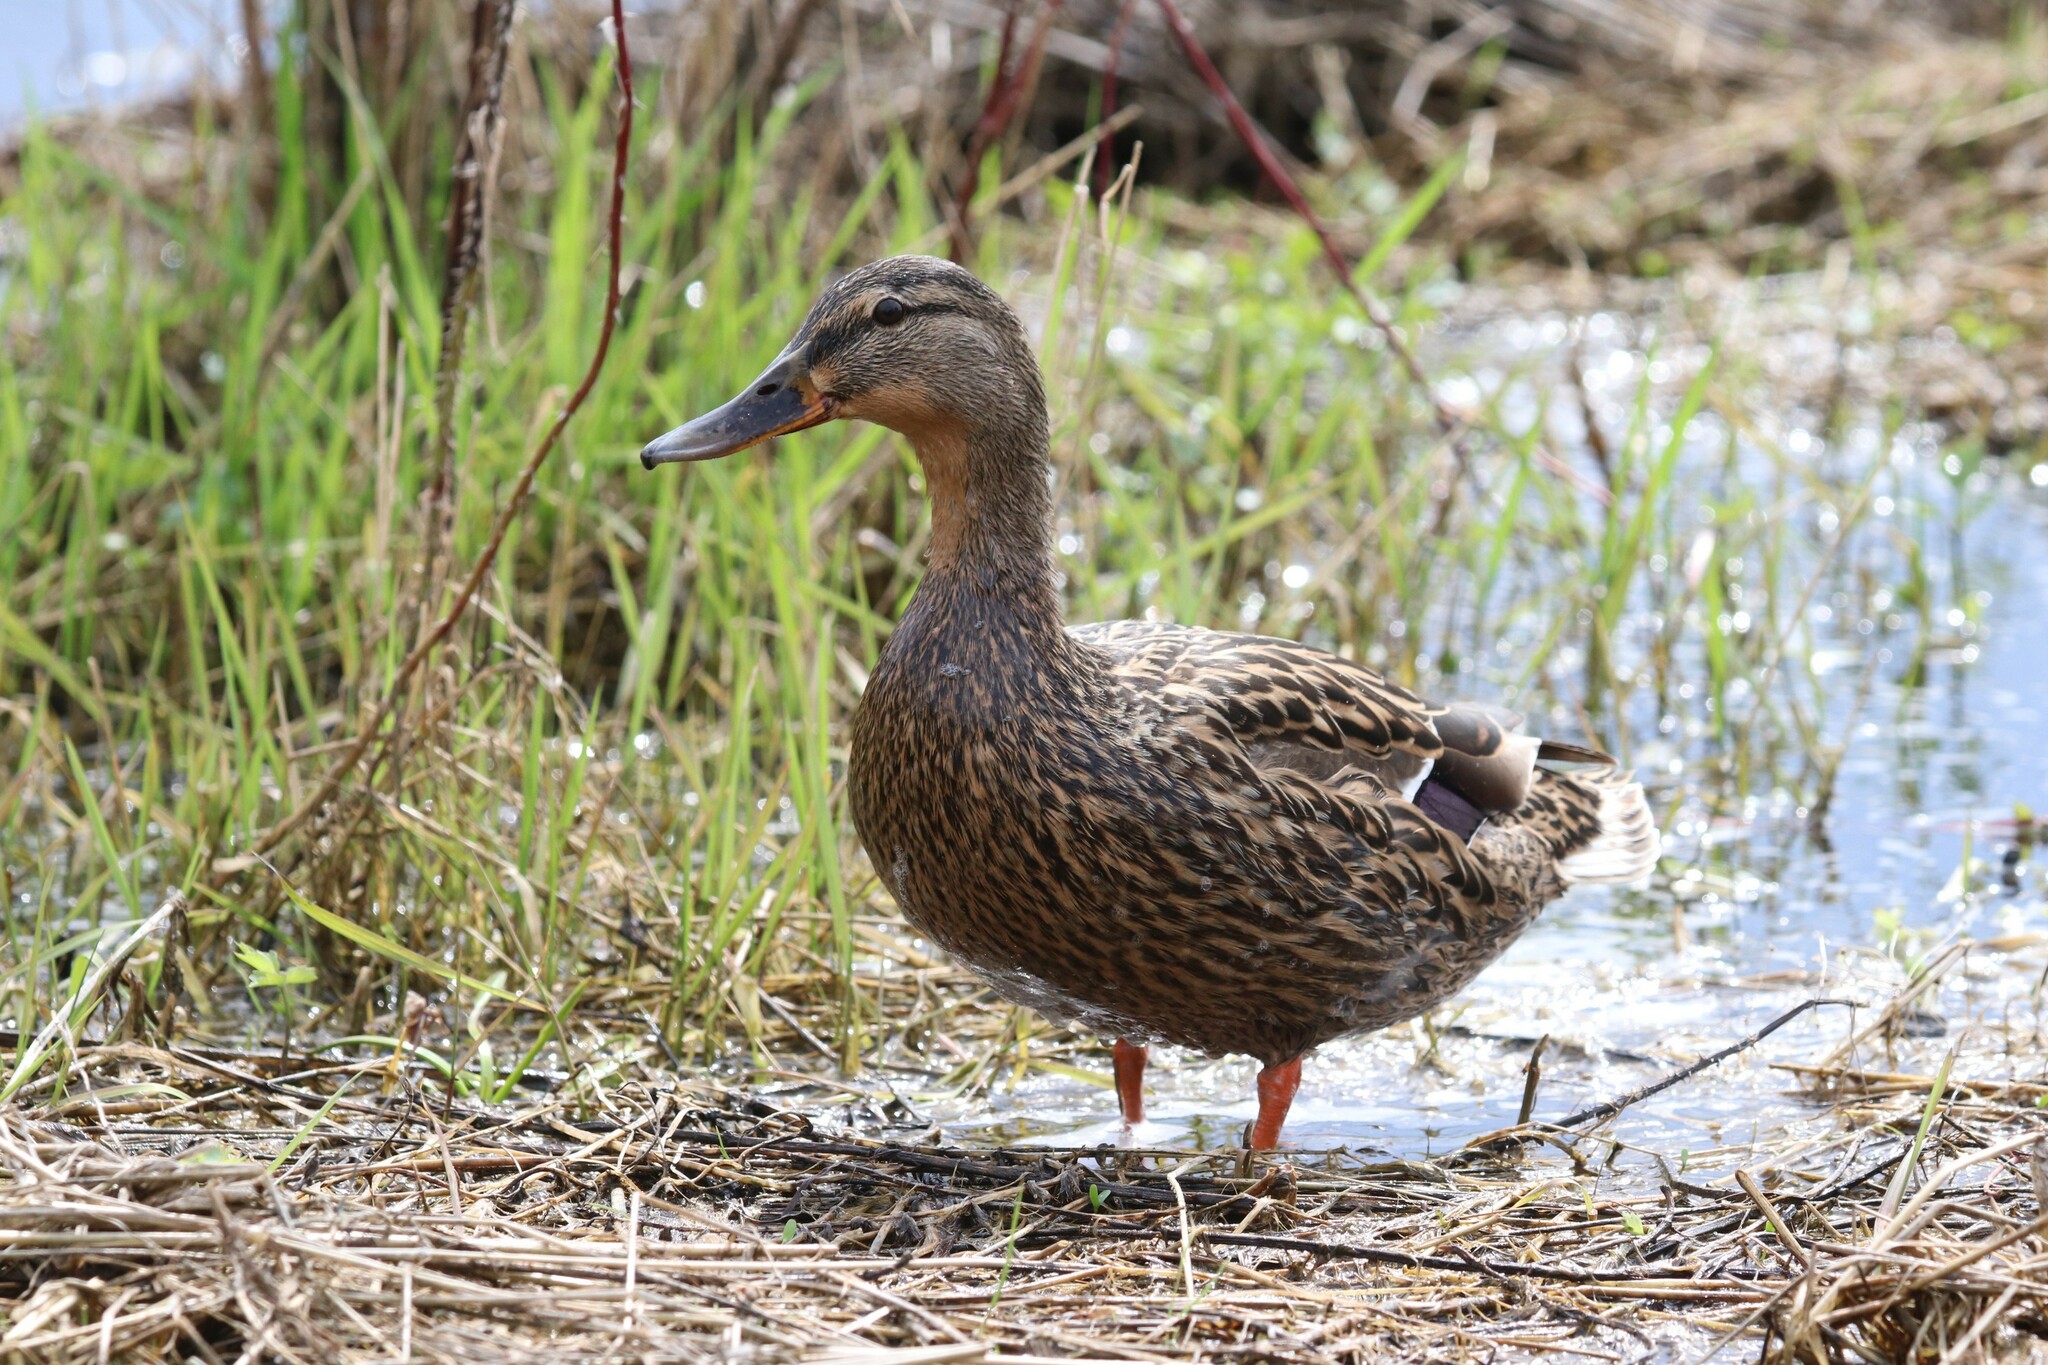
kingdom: Animalia
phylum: Chordata
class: Aves
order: Anseriformes
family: Anatidae
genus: Anas
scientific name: Anas platyrhynchos
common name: Mallard
